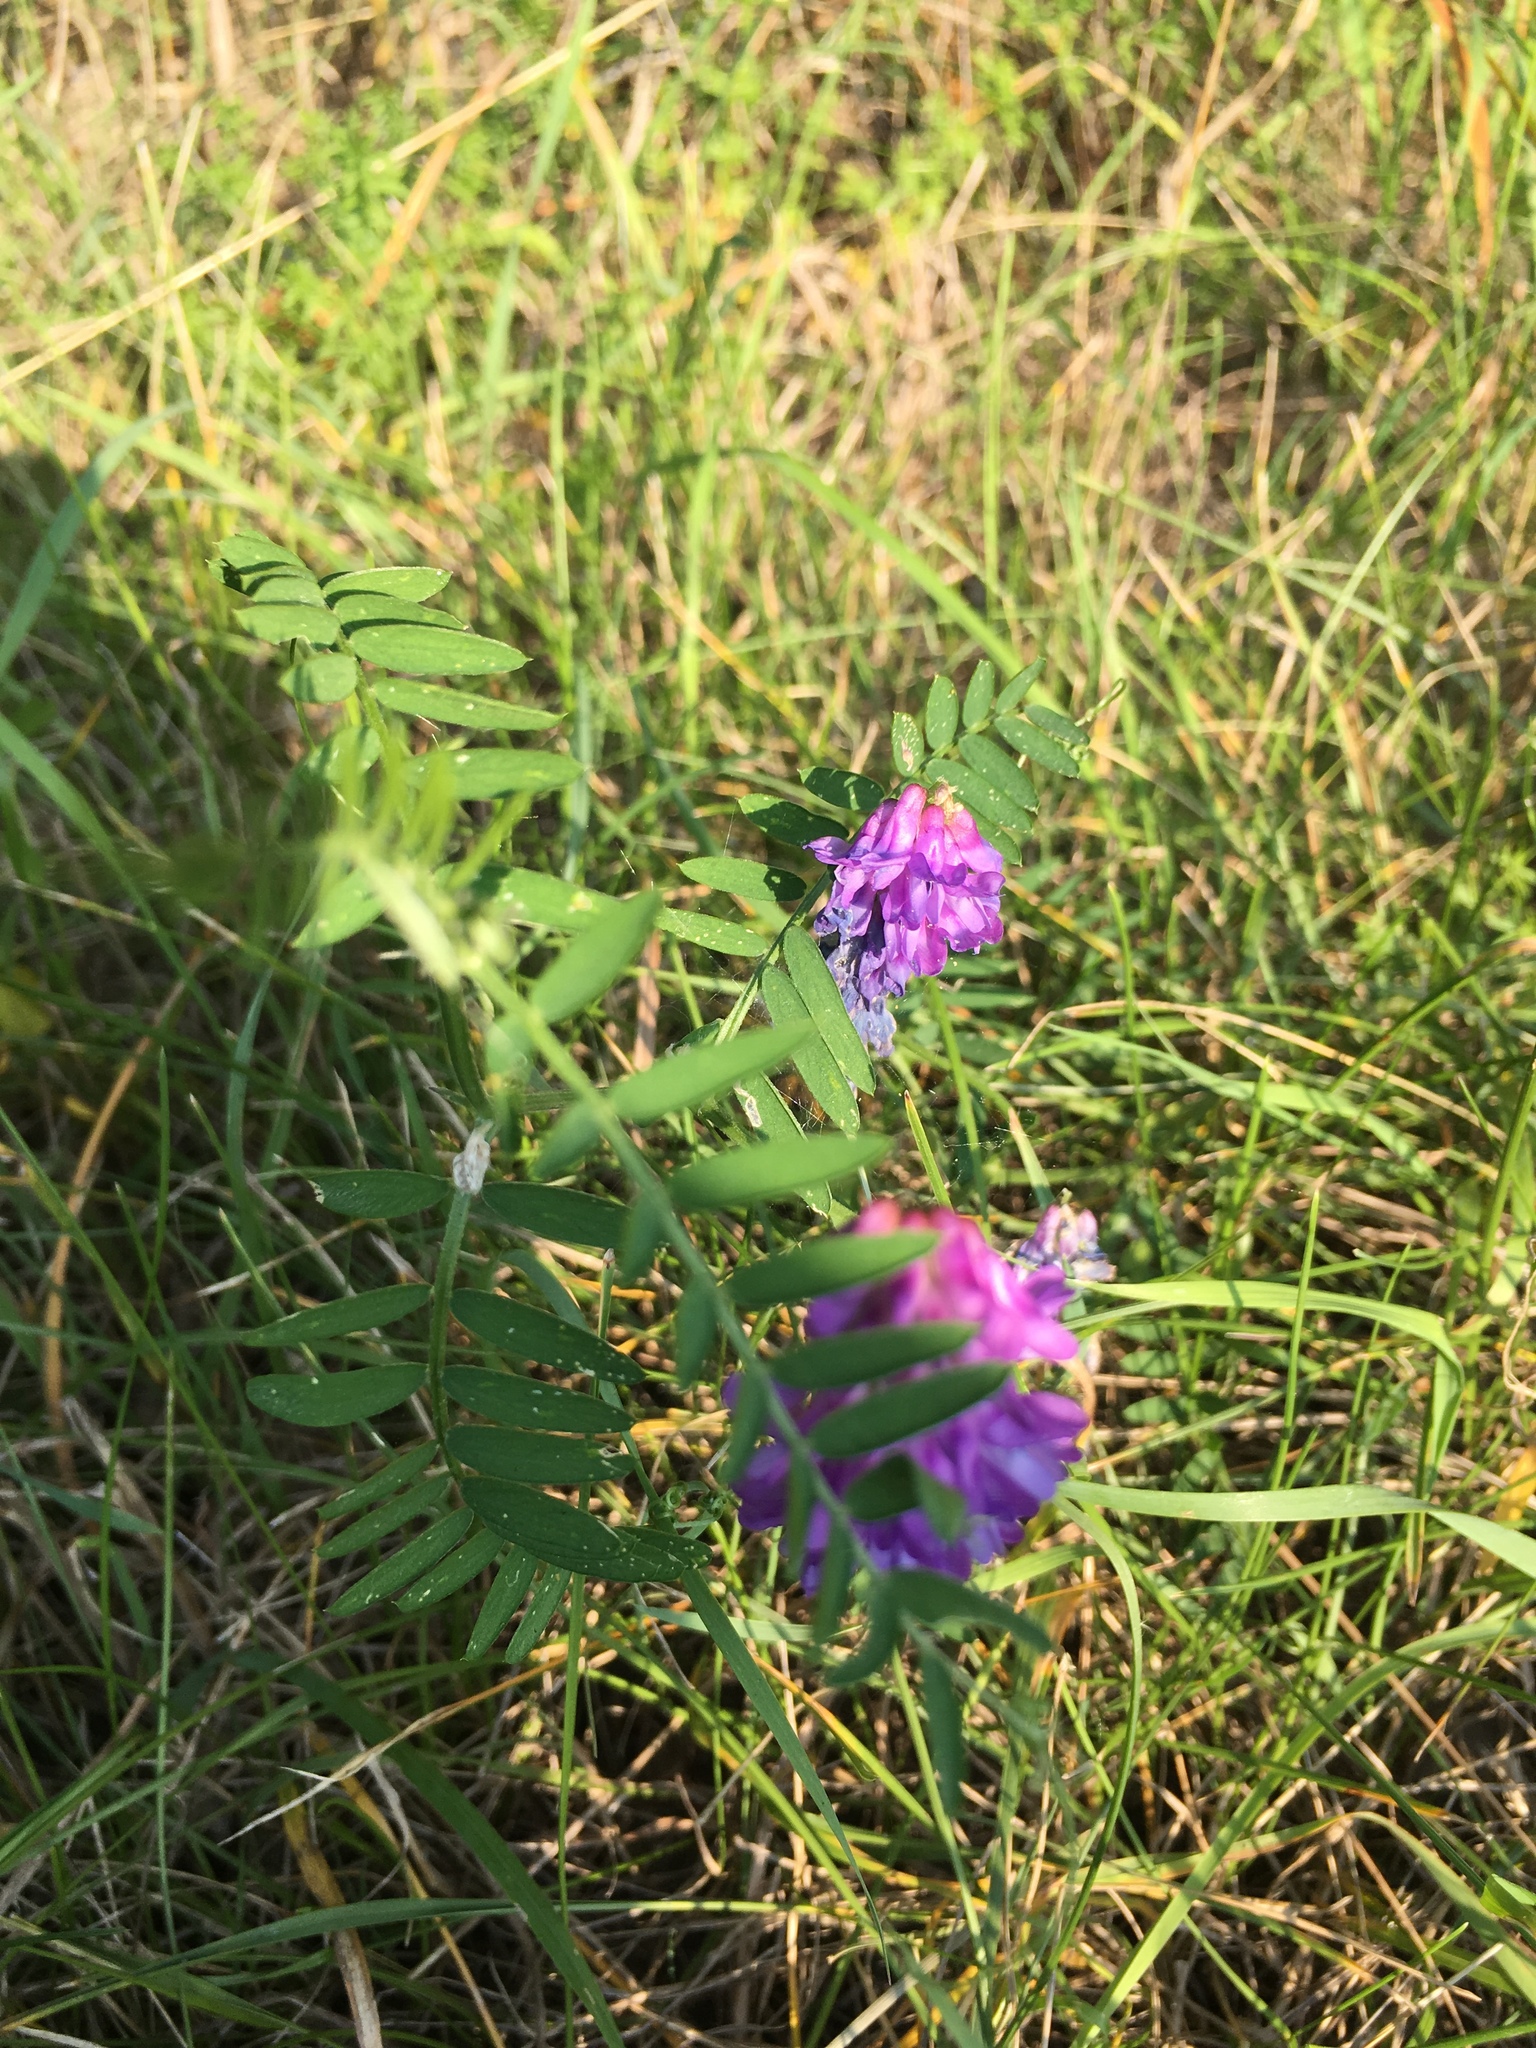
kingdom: Plantae
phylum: Tracheophyta
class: Magnoliopsida
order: Fabales
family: Fabaceae
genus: Vicia
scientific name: Vicia cracca
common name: Bird vetch
